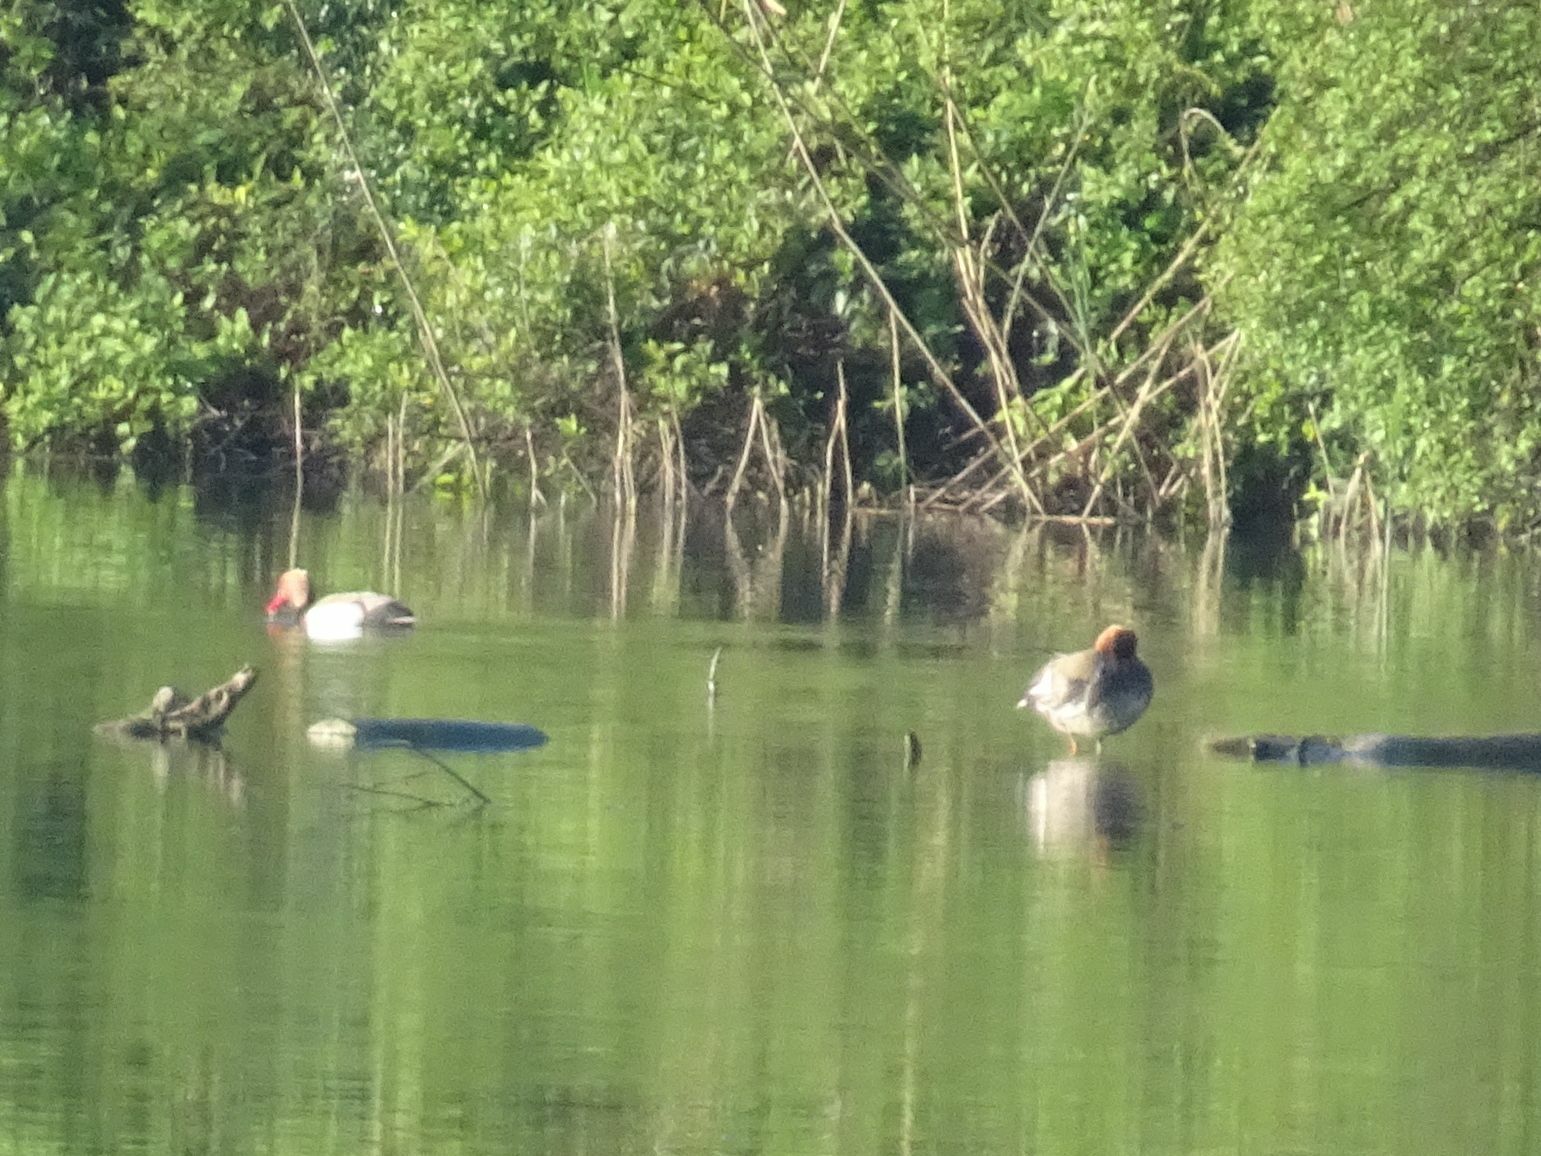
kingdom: Animalia
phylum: Chordata
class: Aves
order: Anseriformes
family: Anatidae
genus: Netta
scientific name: Netta rufina
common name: Red-crested pochard
